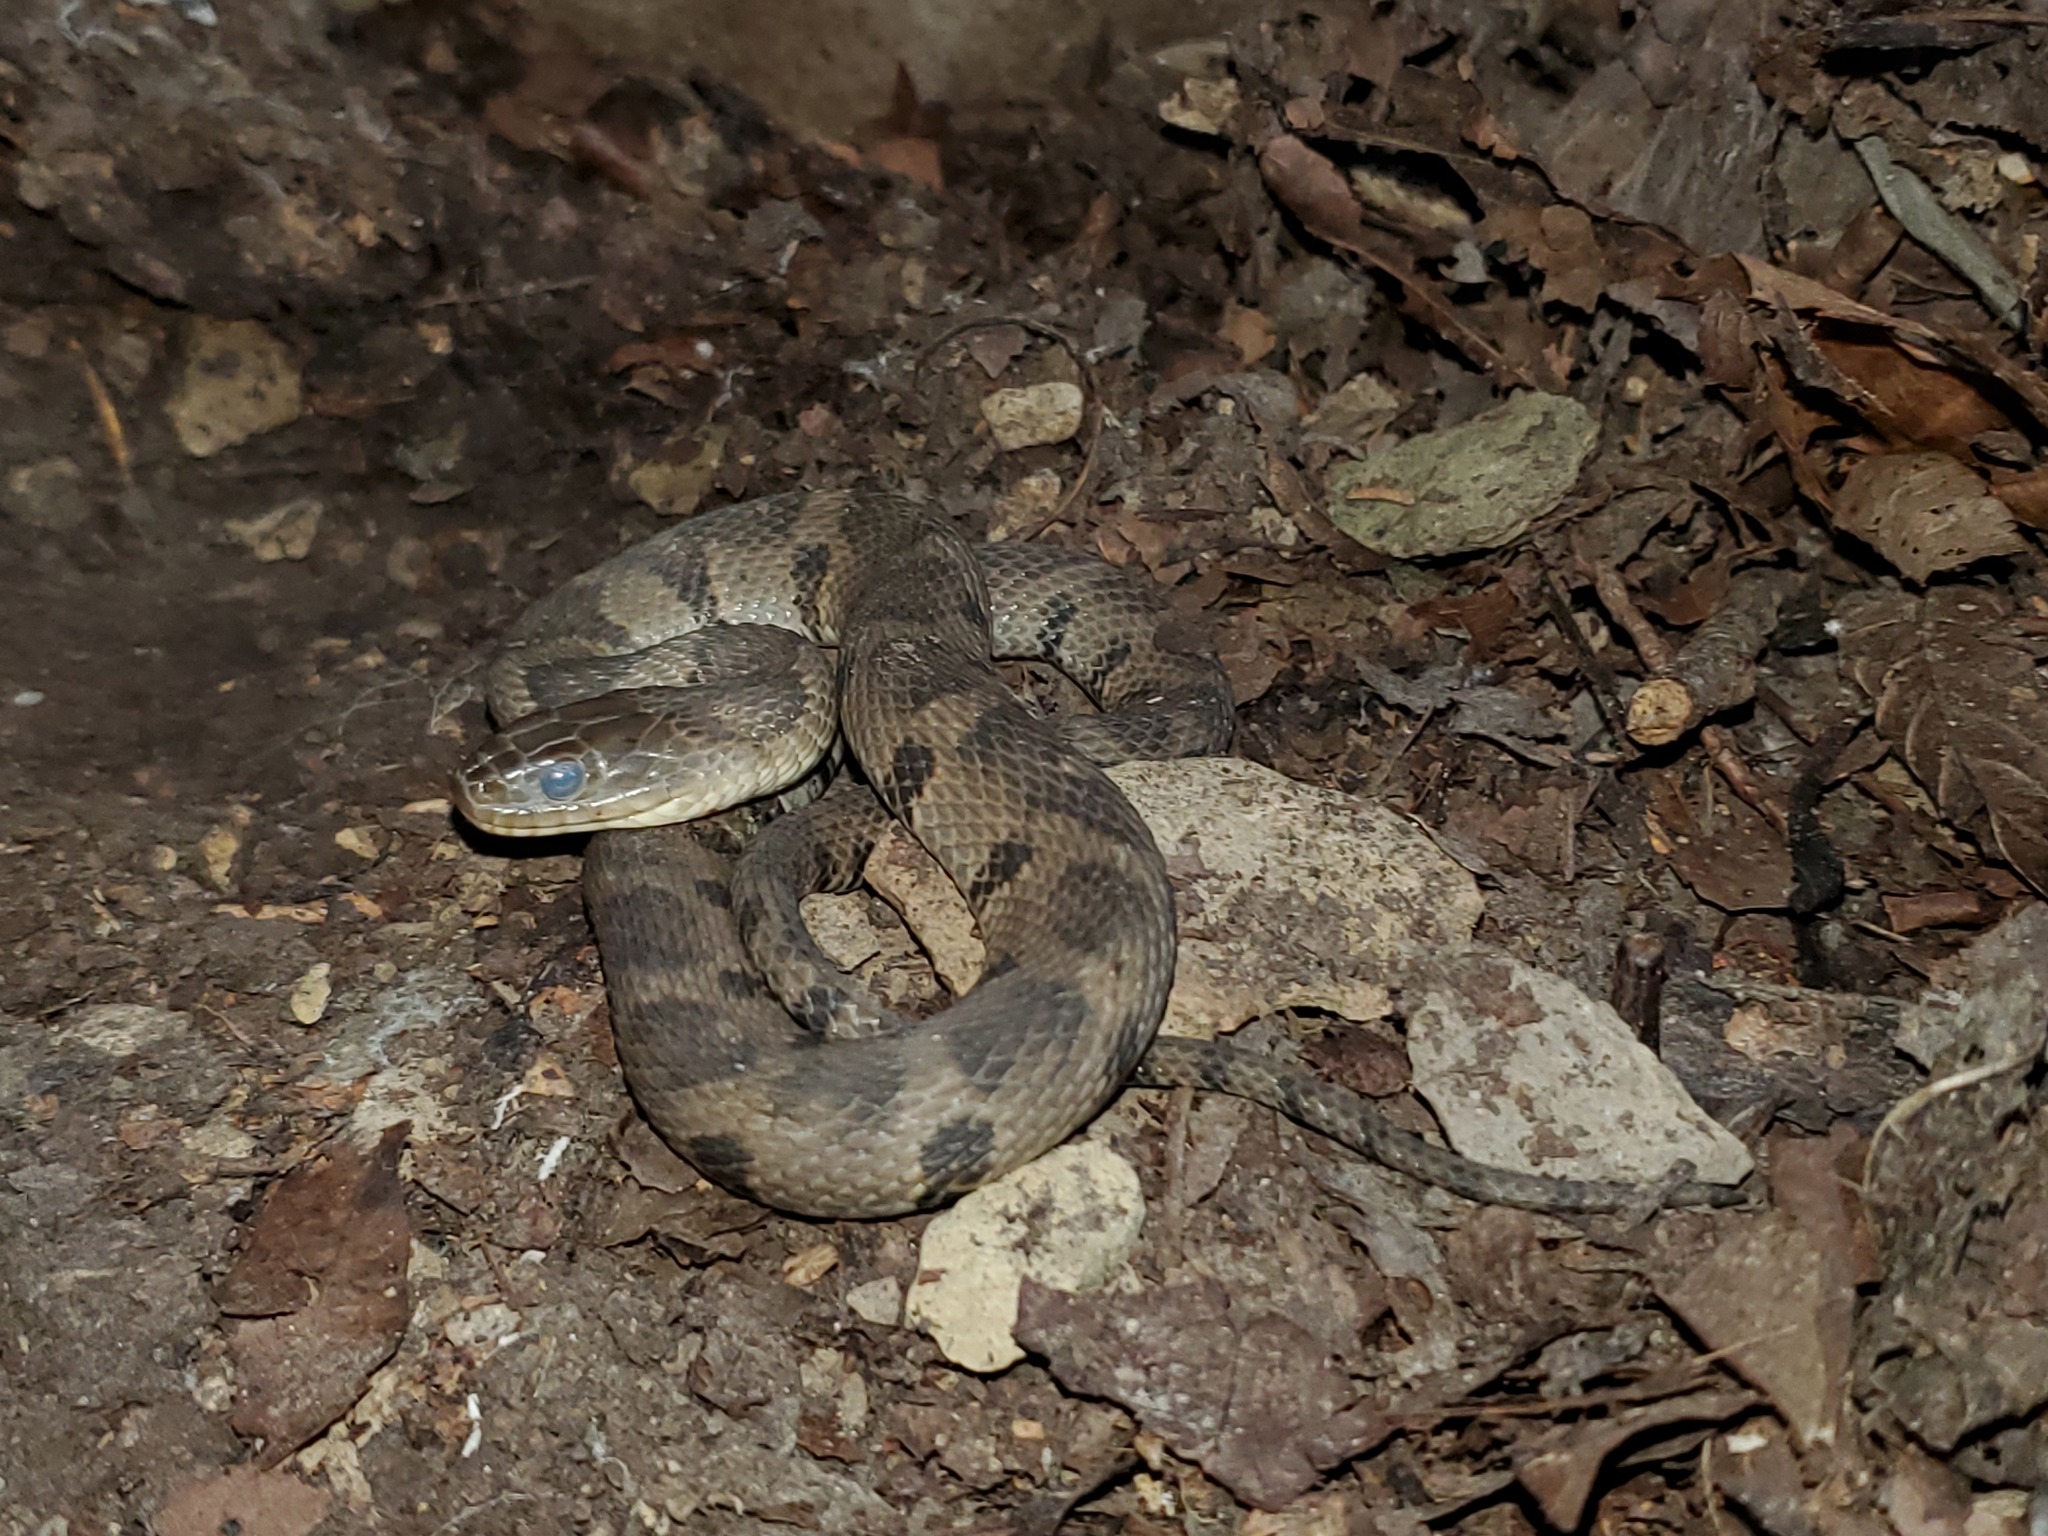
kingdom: Animalia
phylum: Chordata
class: Squamata
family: Colubridae
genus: Nerodia
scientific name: Nerodia sipedon
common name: Northern water snake
